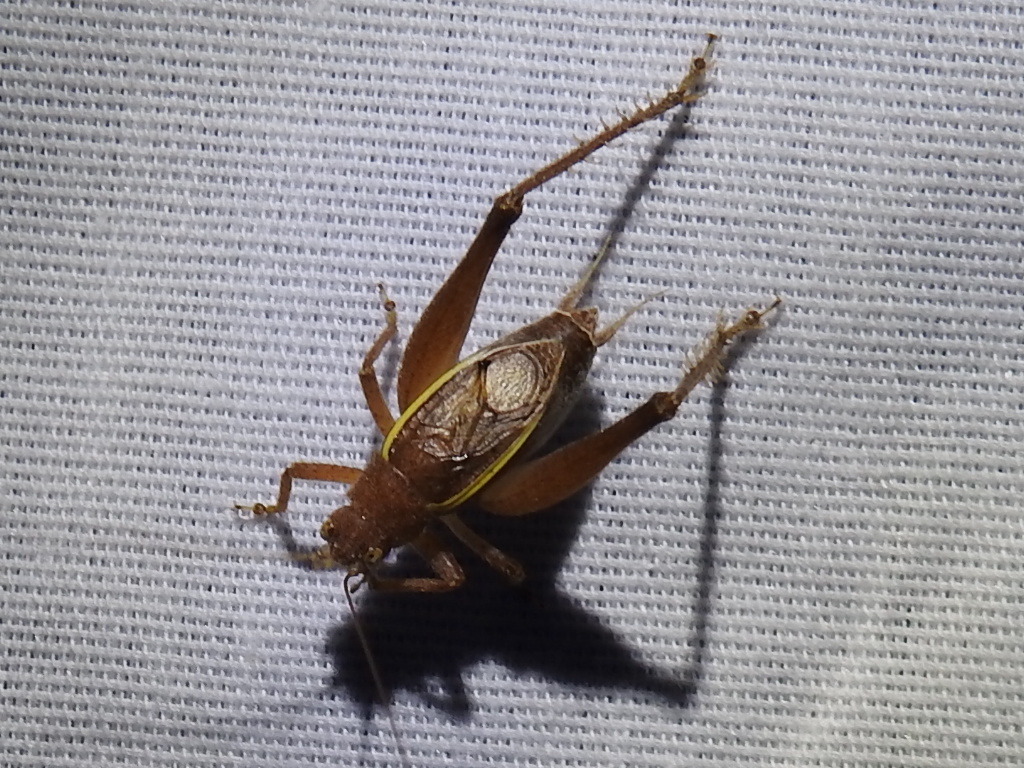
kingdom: Animalia
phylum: Arthropoda
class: Insecta
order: Orthoptera
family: Gryllidae
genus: Hapithus
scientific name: Hapithus agitator
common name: Restless bush cricket
